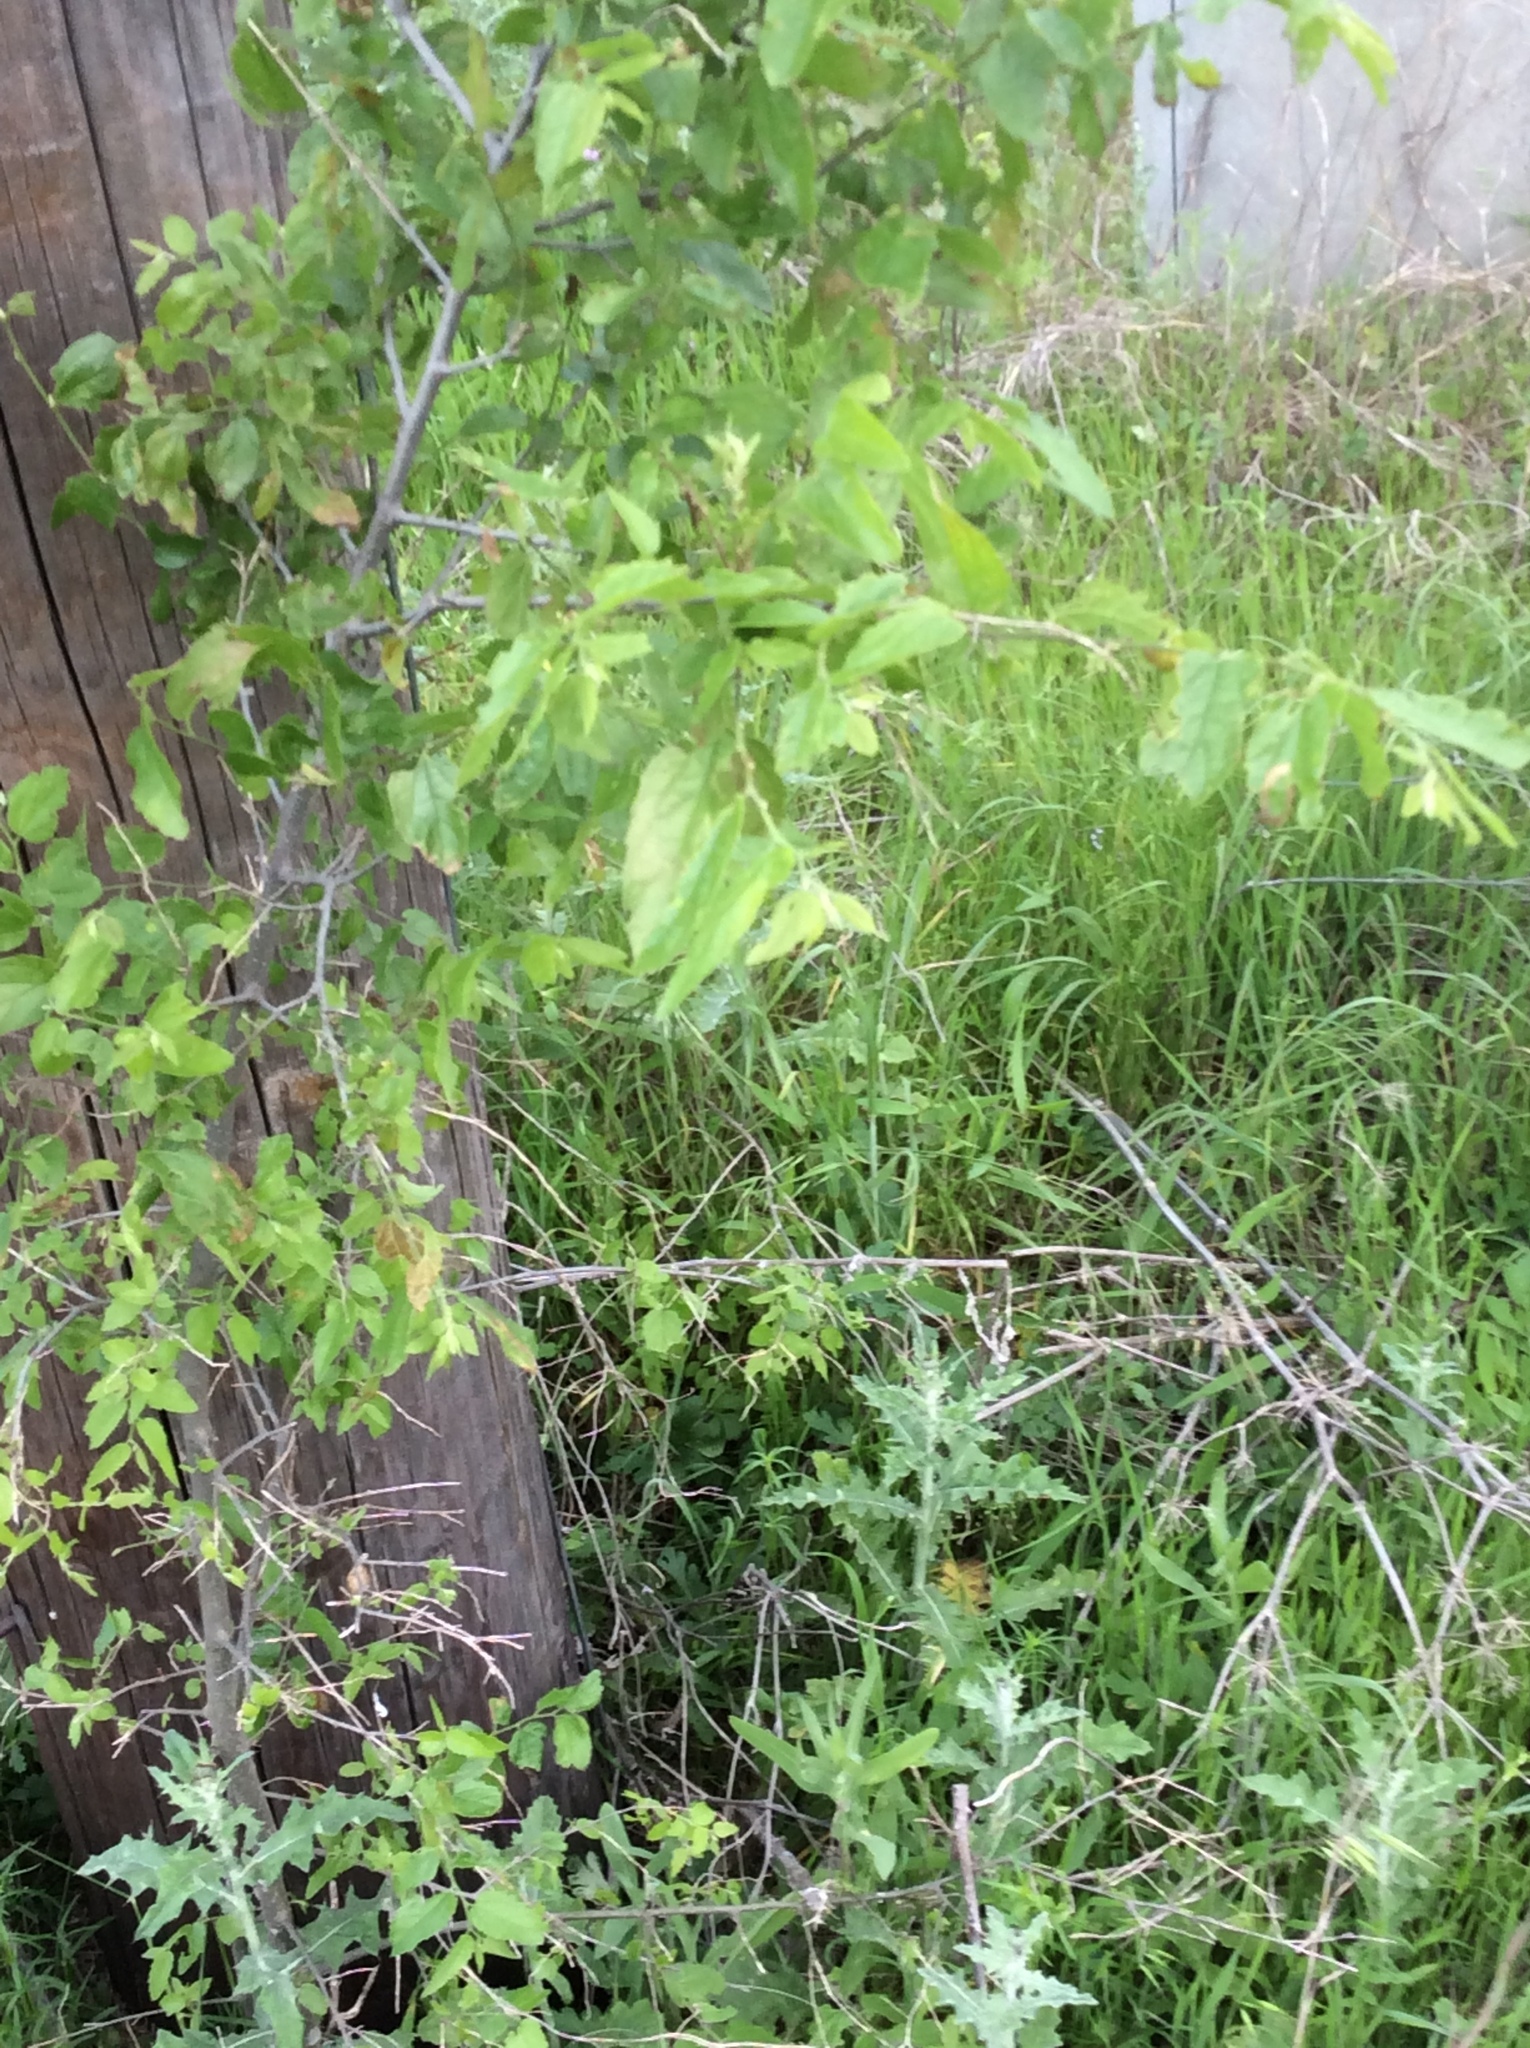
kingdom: Plantae
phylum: Tracheophyta
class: Magnoliopsida
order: Rosales
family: Cannabaceae
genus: Celtis
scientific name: Celtis laevigata
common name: Sugarberry
